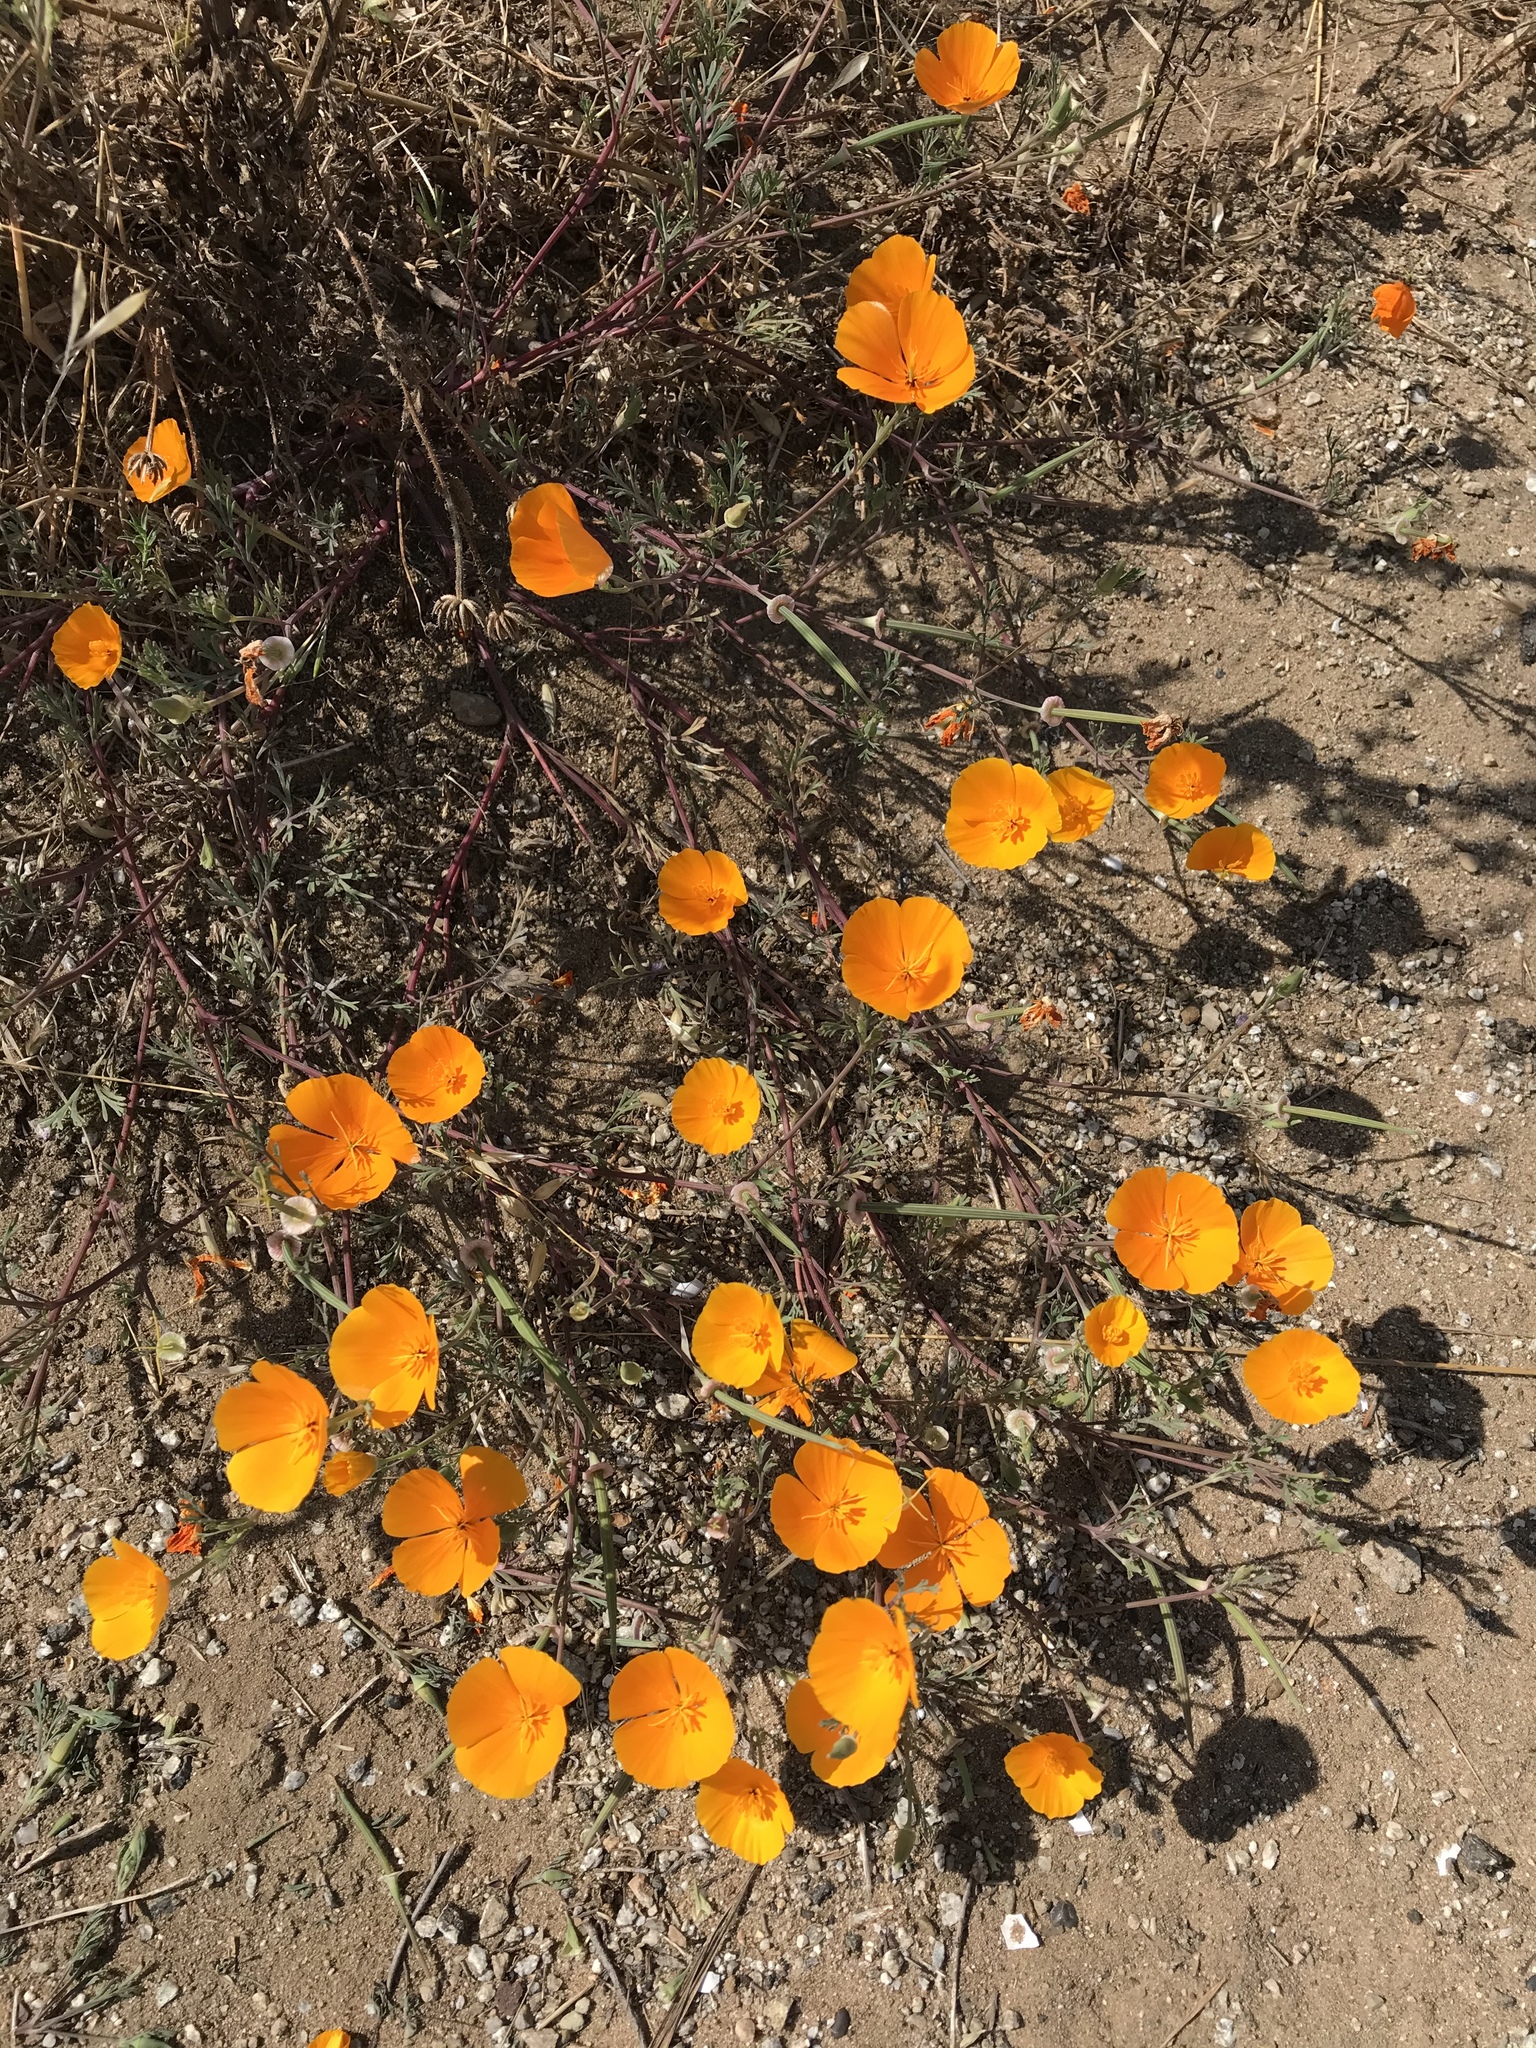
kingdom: Plantae
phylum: Tracheophyta
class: Magnoliopsida
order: Ranunculales
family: Papaveraceae
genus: Eschscholzia
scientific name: Eschscholzia californica
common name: California poppy
